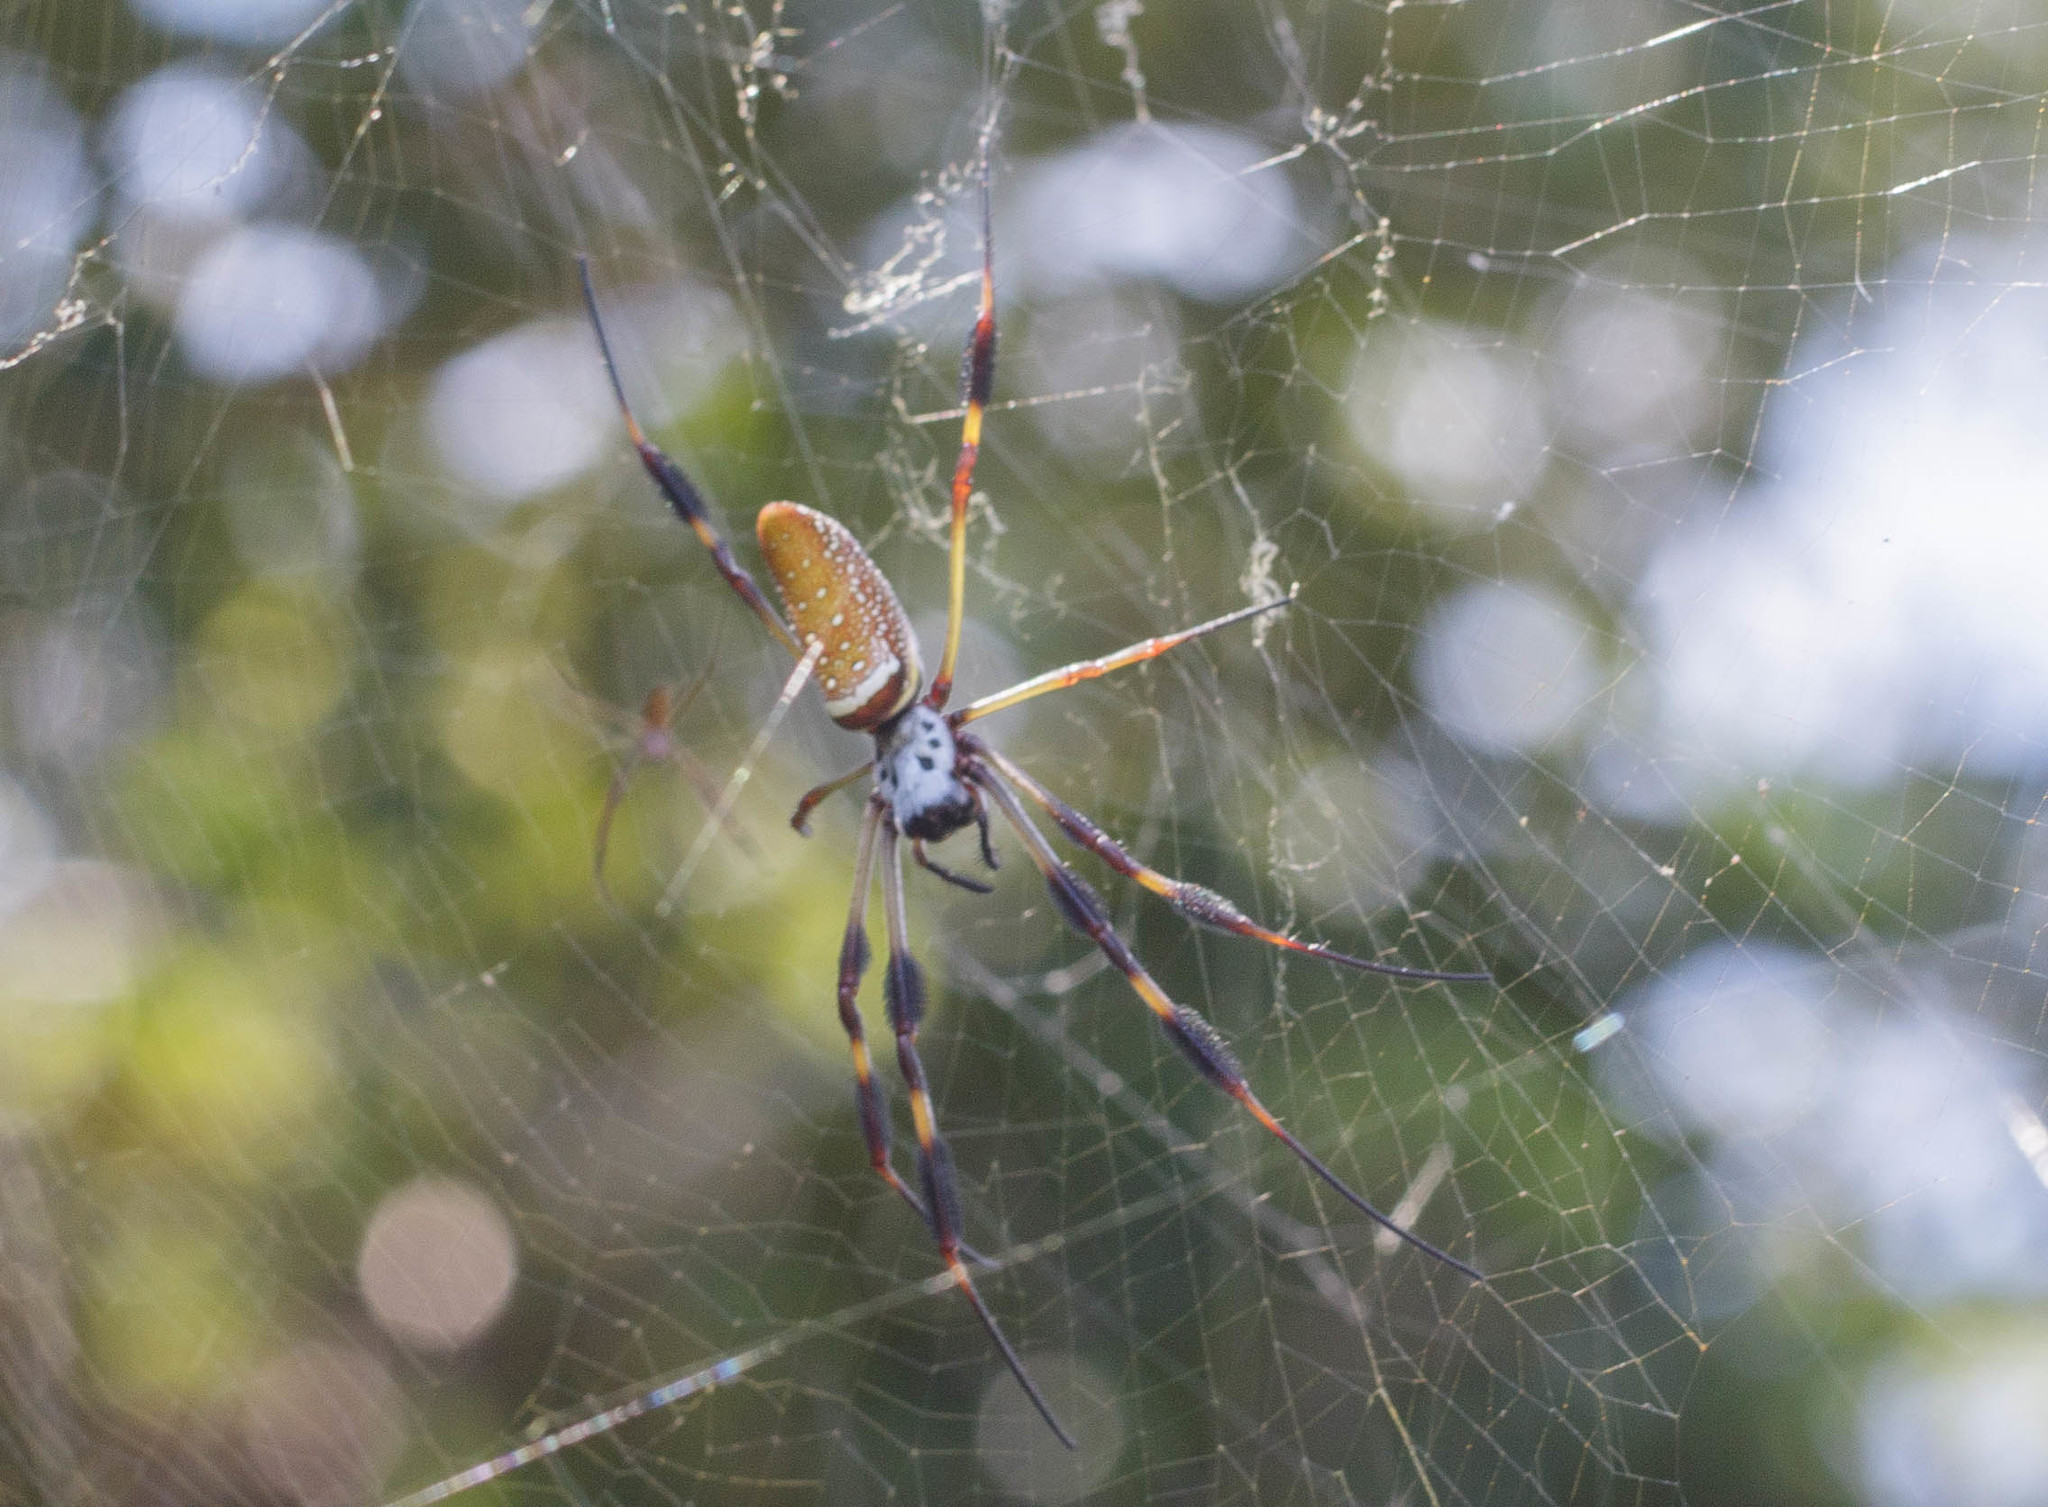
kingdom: Animalia
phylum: Arthropoda
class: Arachnida
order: Araneae
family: Araneidae
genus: Trichonephila
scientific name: Trichonephila clavipes
